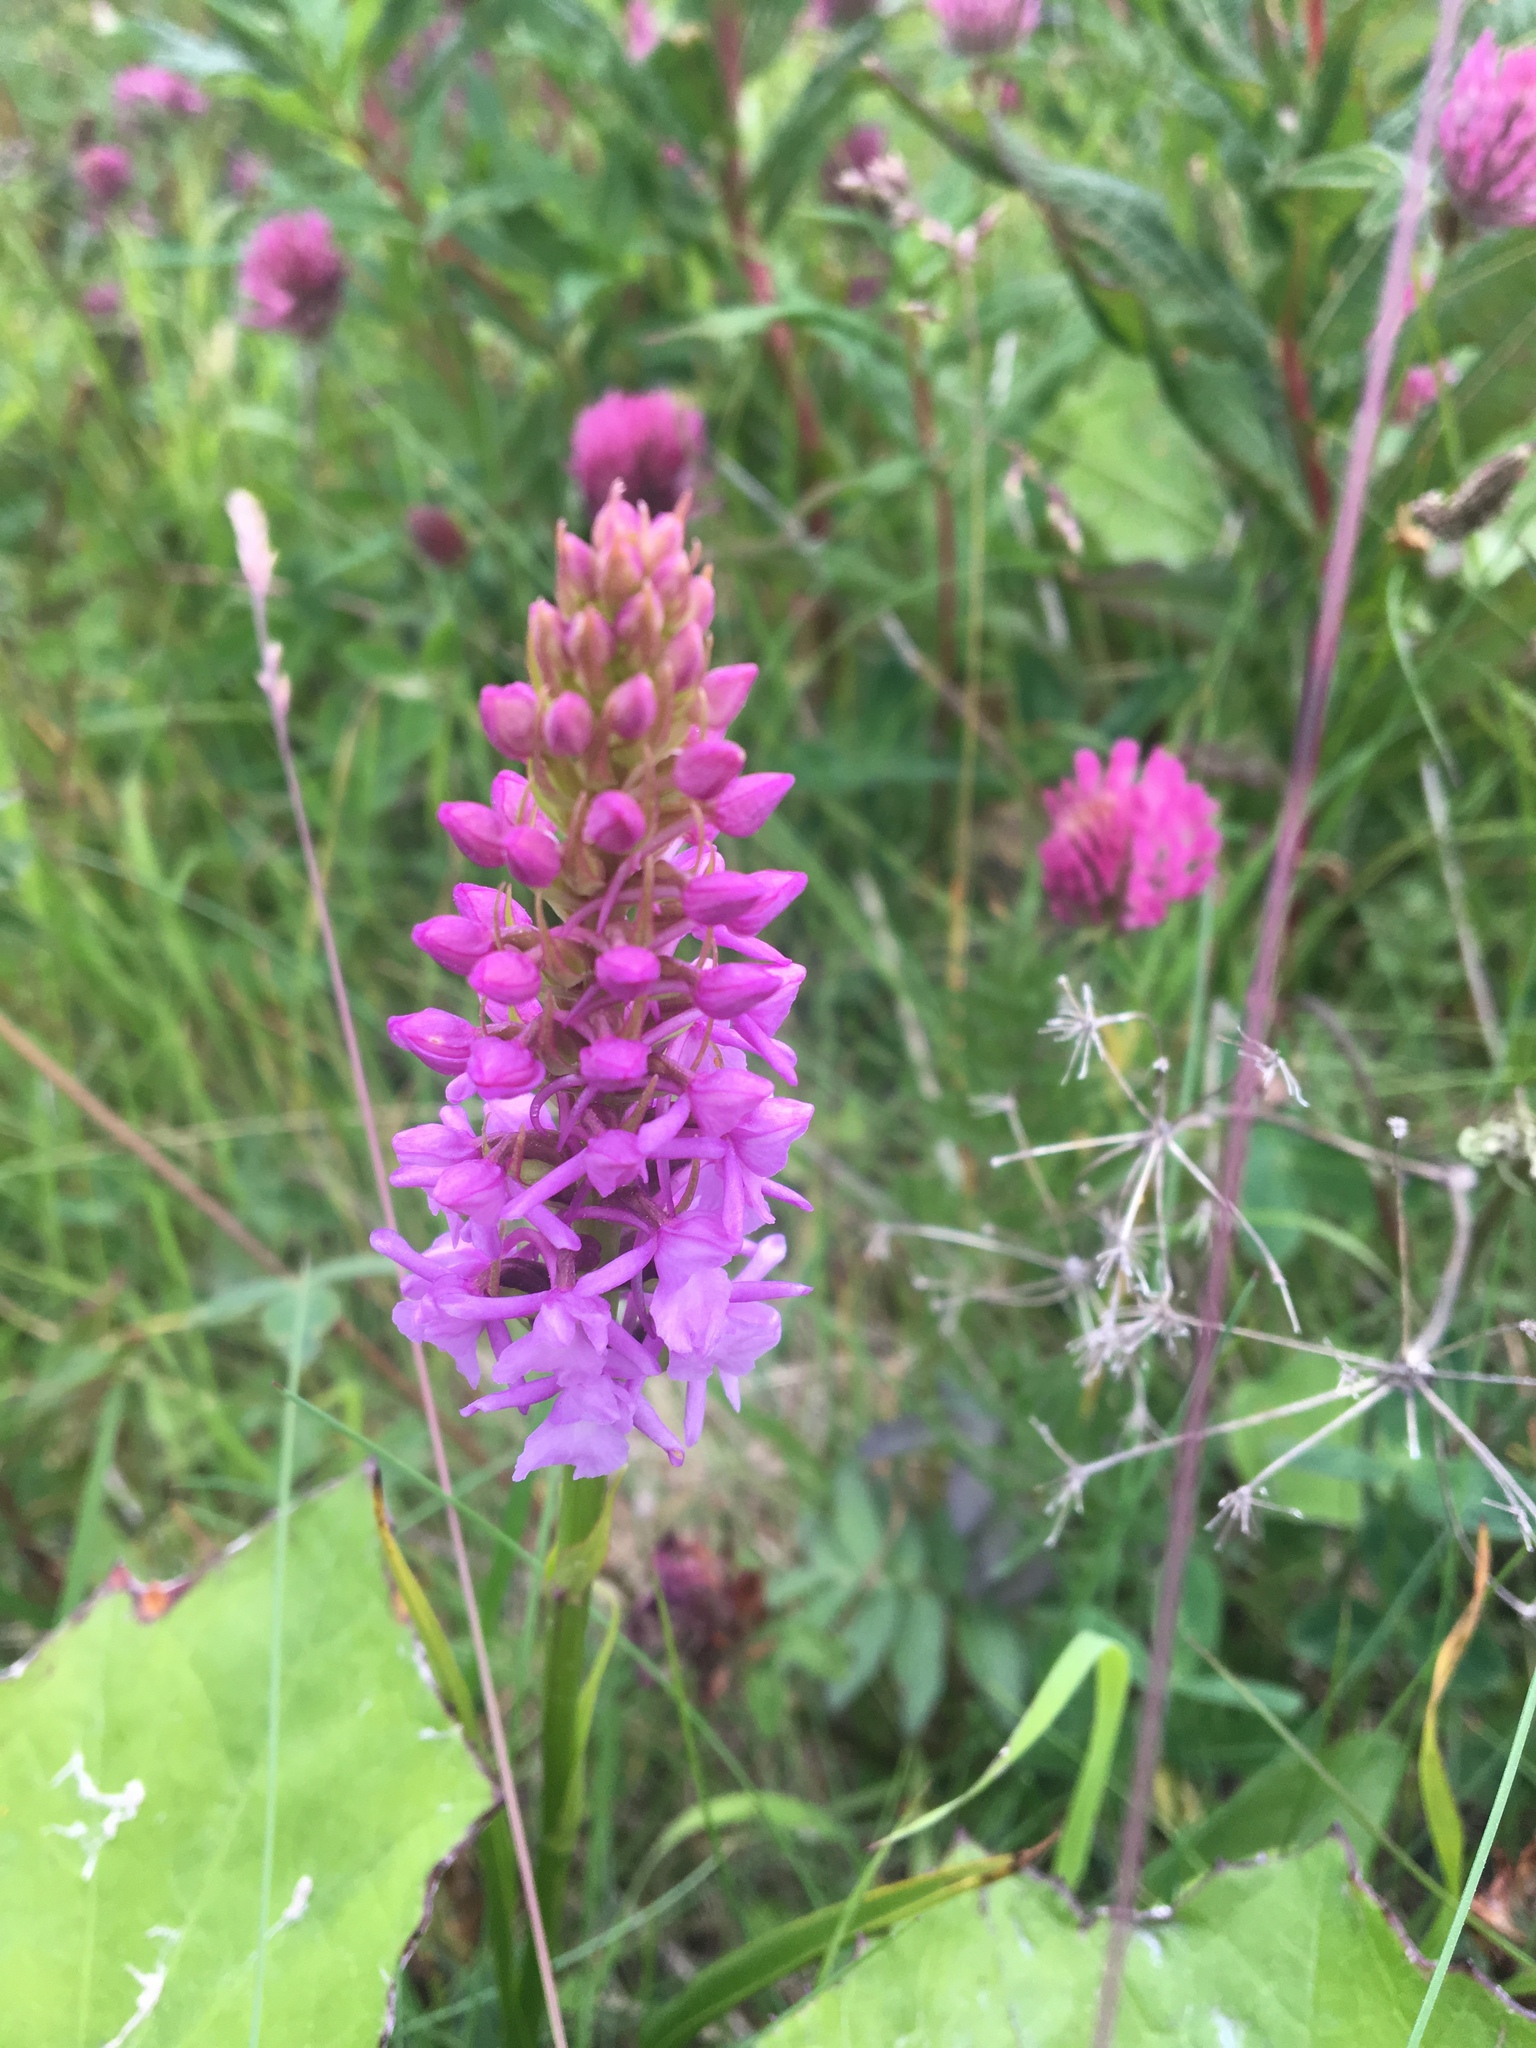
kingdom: Plantae
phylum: Tracheophyta
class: Liliopsida
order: Asparagales
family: Orchidaceae
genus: Gymnadenia
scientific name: Gymnadenia conopsea
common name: Fragrant orchid
